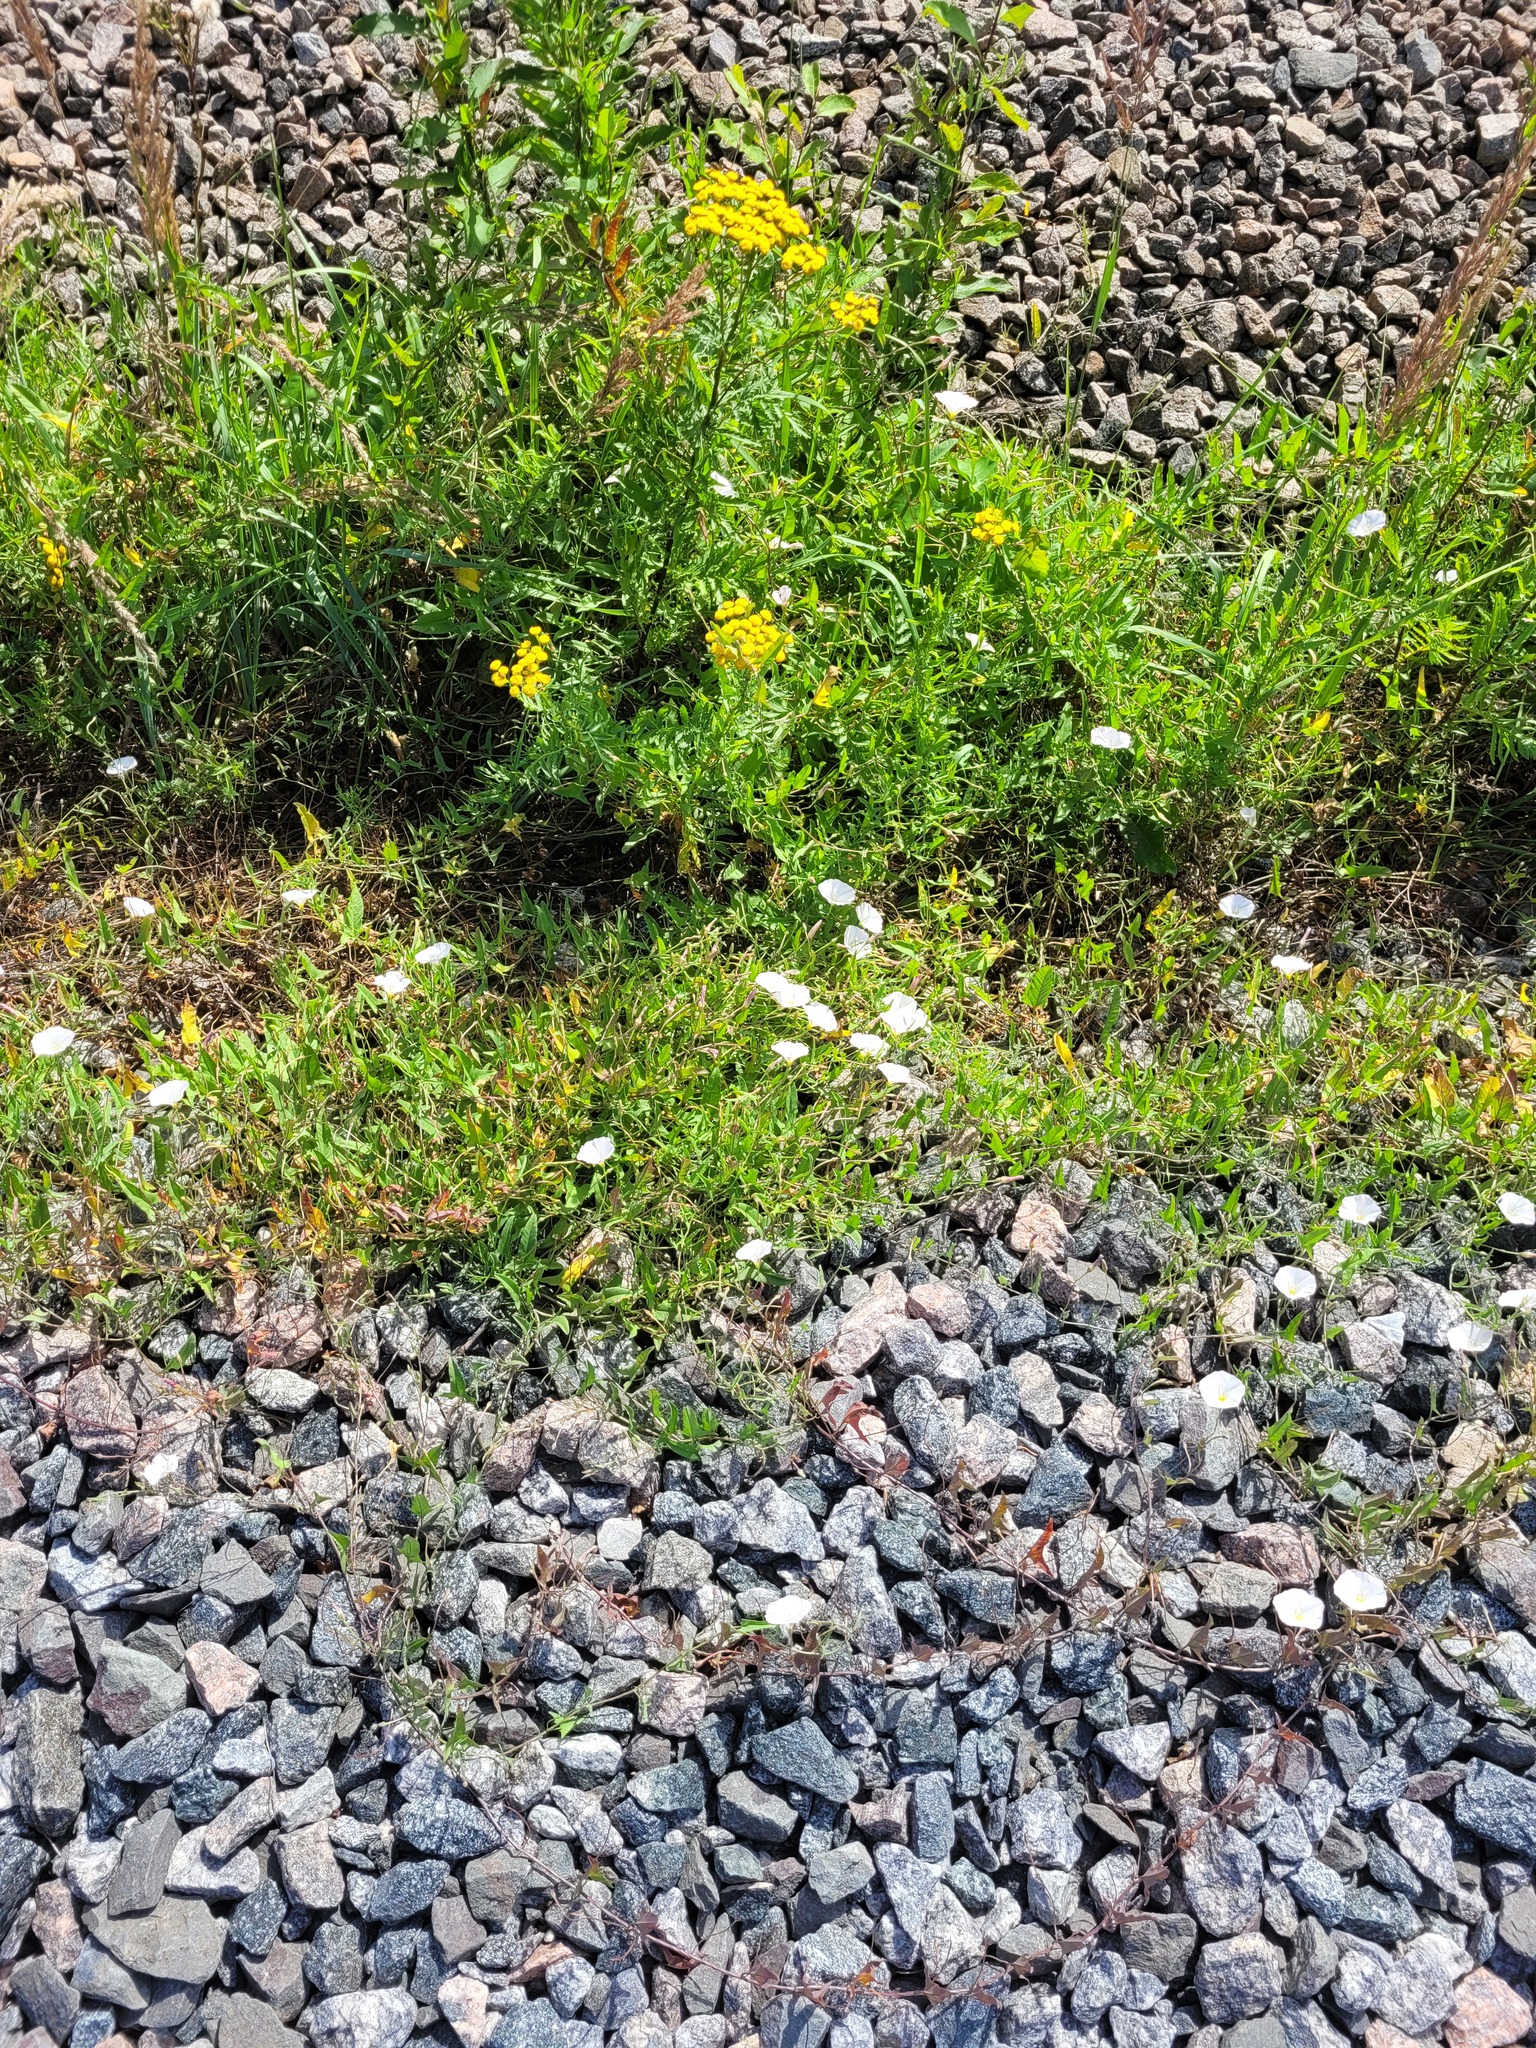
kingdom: Plantae
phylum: Tracheophyta
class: Magnoliopsida
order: Solanales
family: Convolvulaceae
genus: Convolvulus
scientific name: Convolvulus arvensis
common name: Field bindweed
